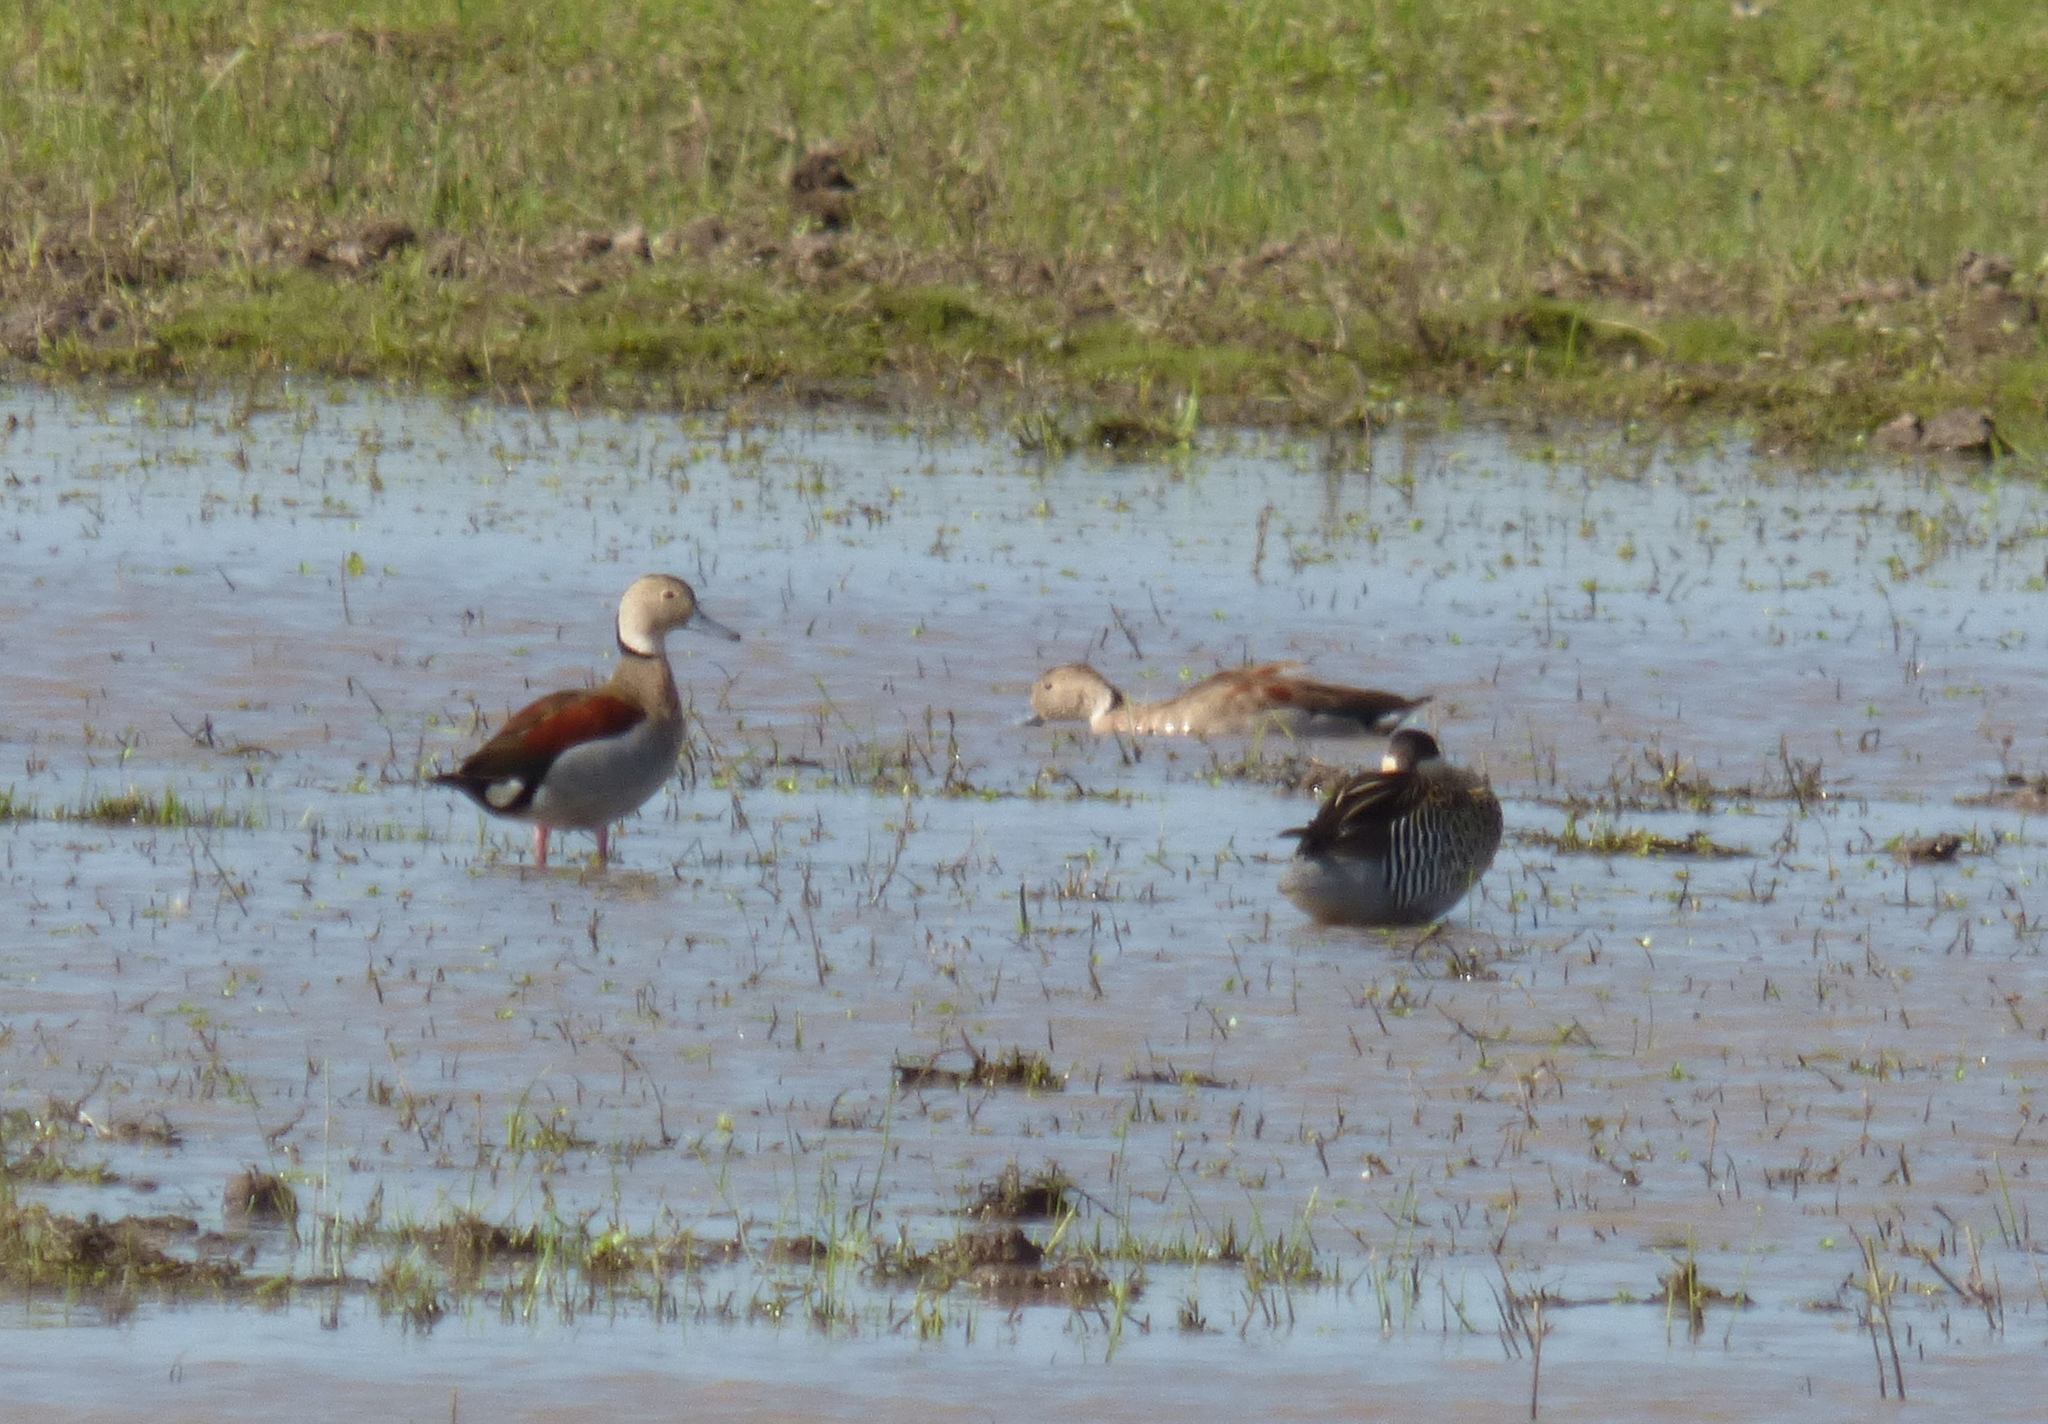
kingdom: Animalia
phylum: Chordata
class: Aves
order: Anseriformes
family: Anatidae
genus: Callonetta
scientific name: Callonetta leucophrys
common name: Ringed teal
